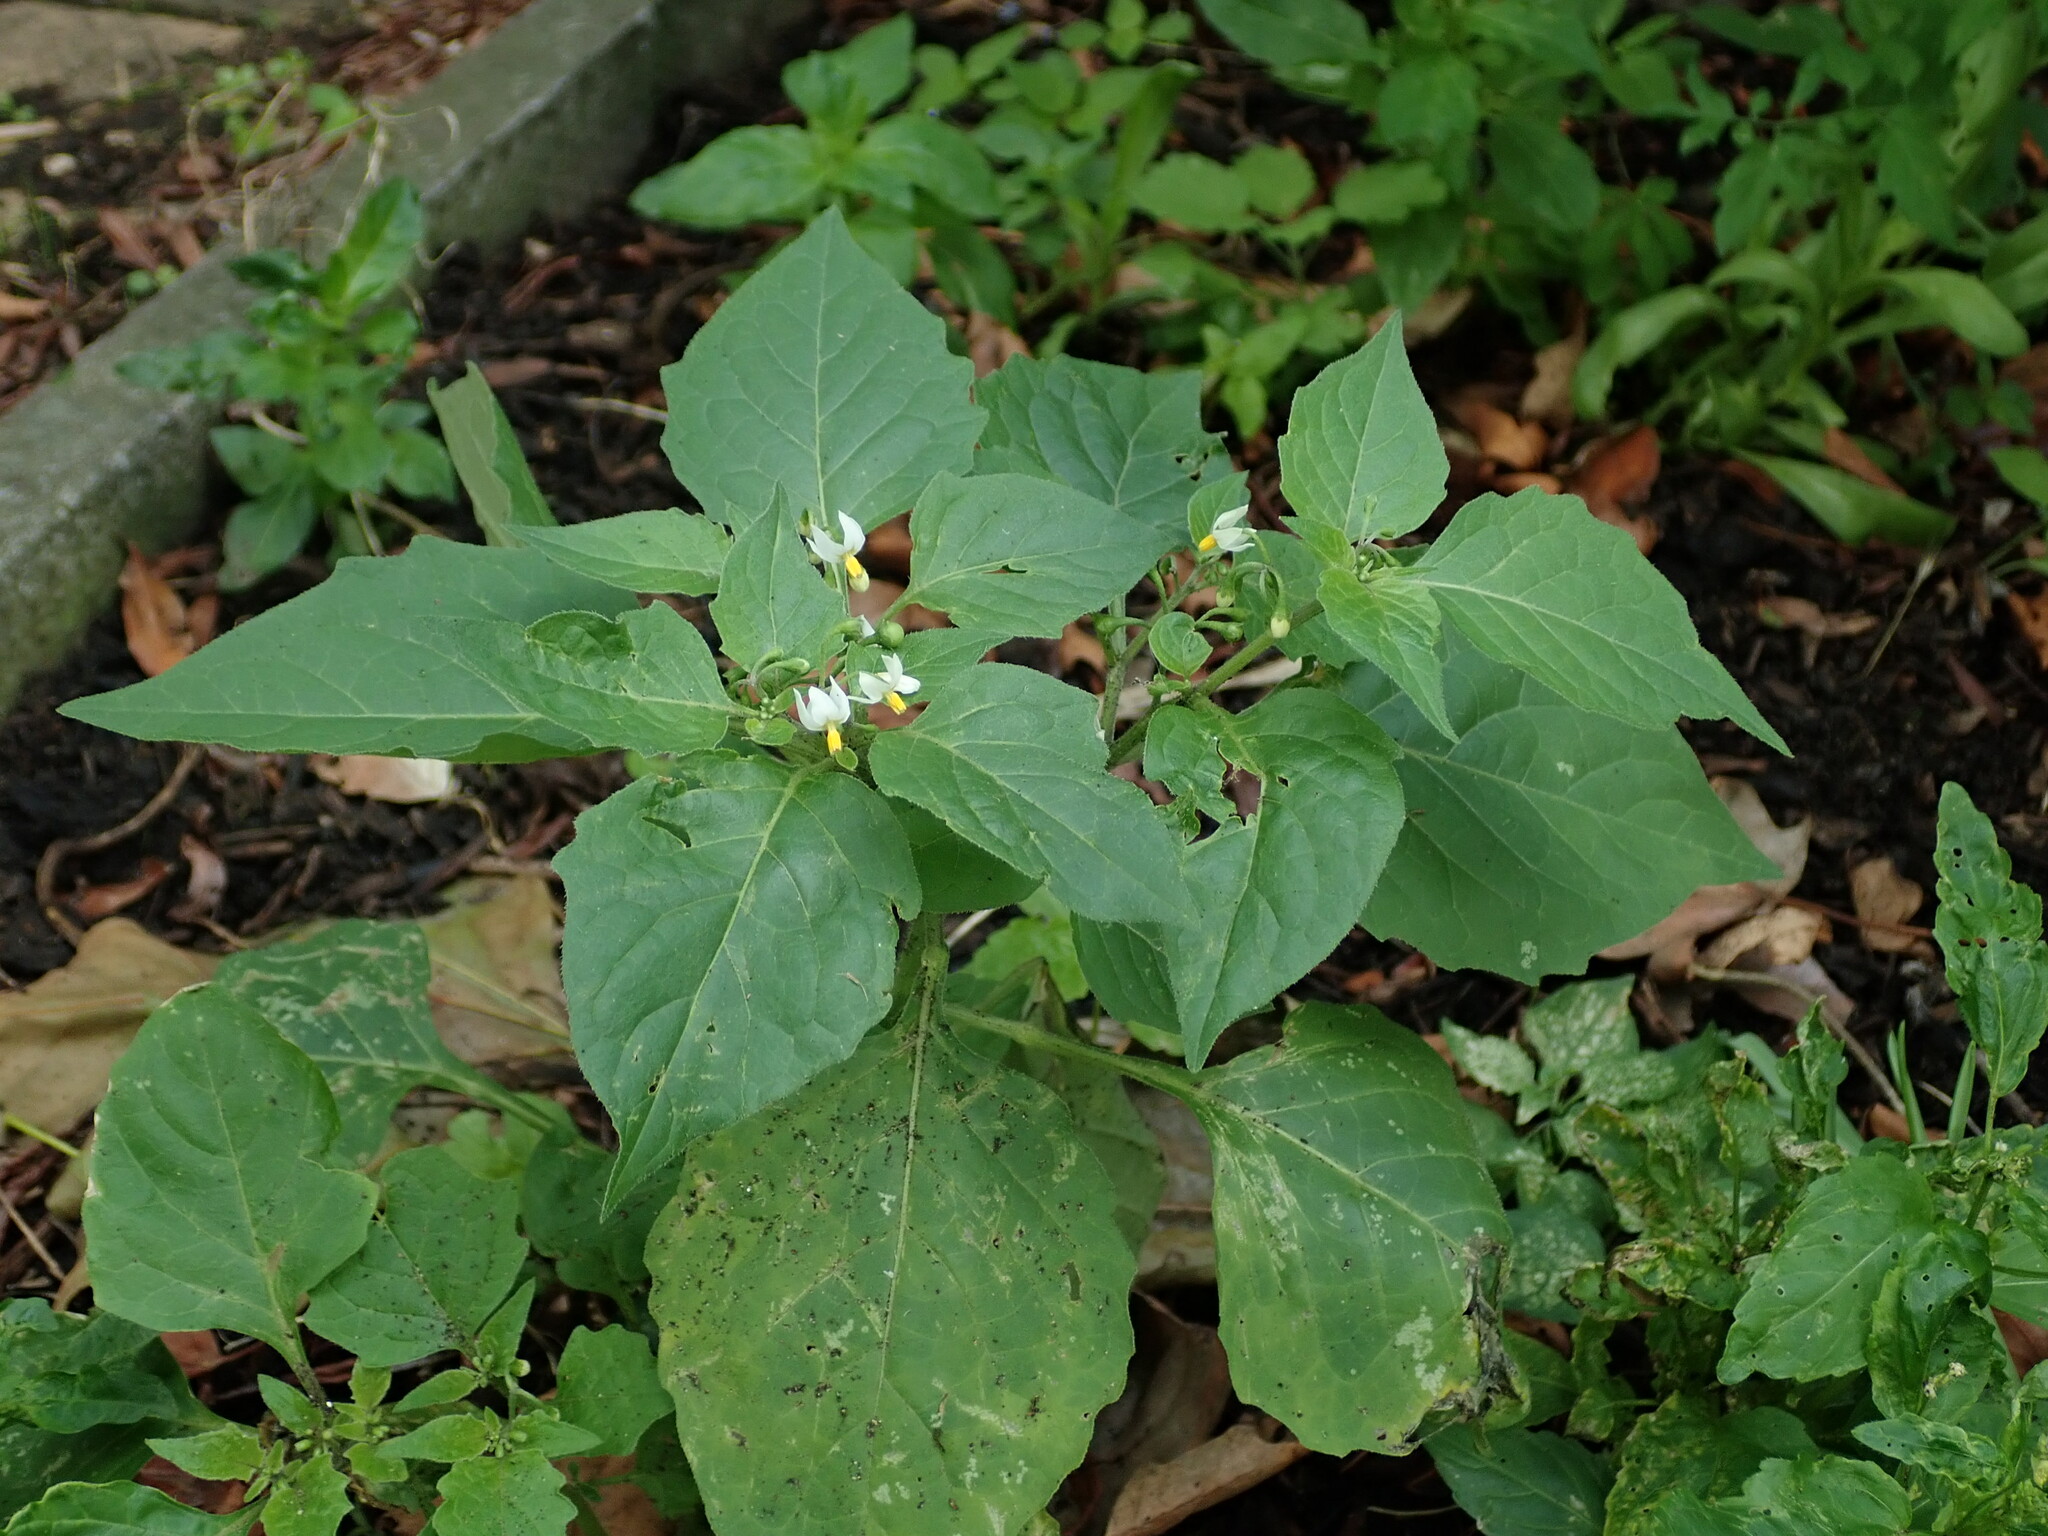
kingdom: Plantae
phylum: Tracheophyta
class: Magnoliopsida
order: Solanales
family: Solanaceae
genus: Solanum
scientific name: Solanum nigrum
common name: Black nightshade
